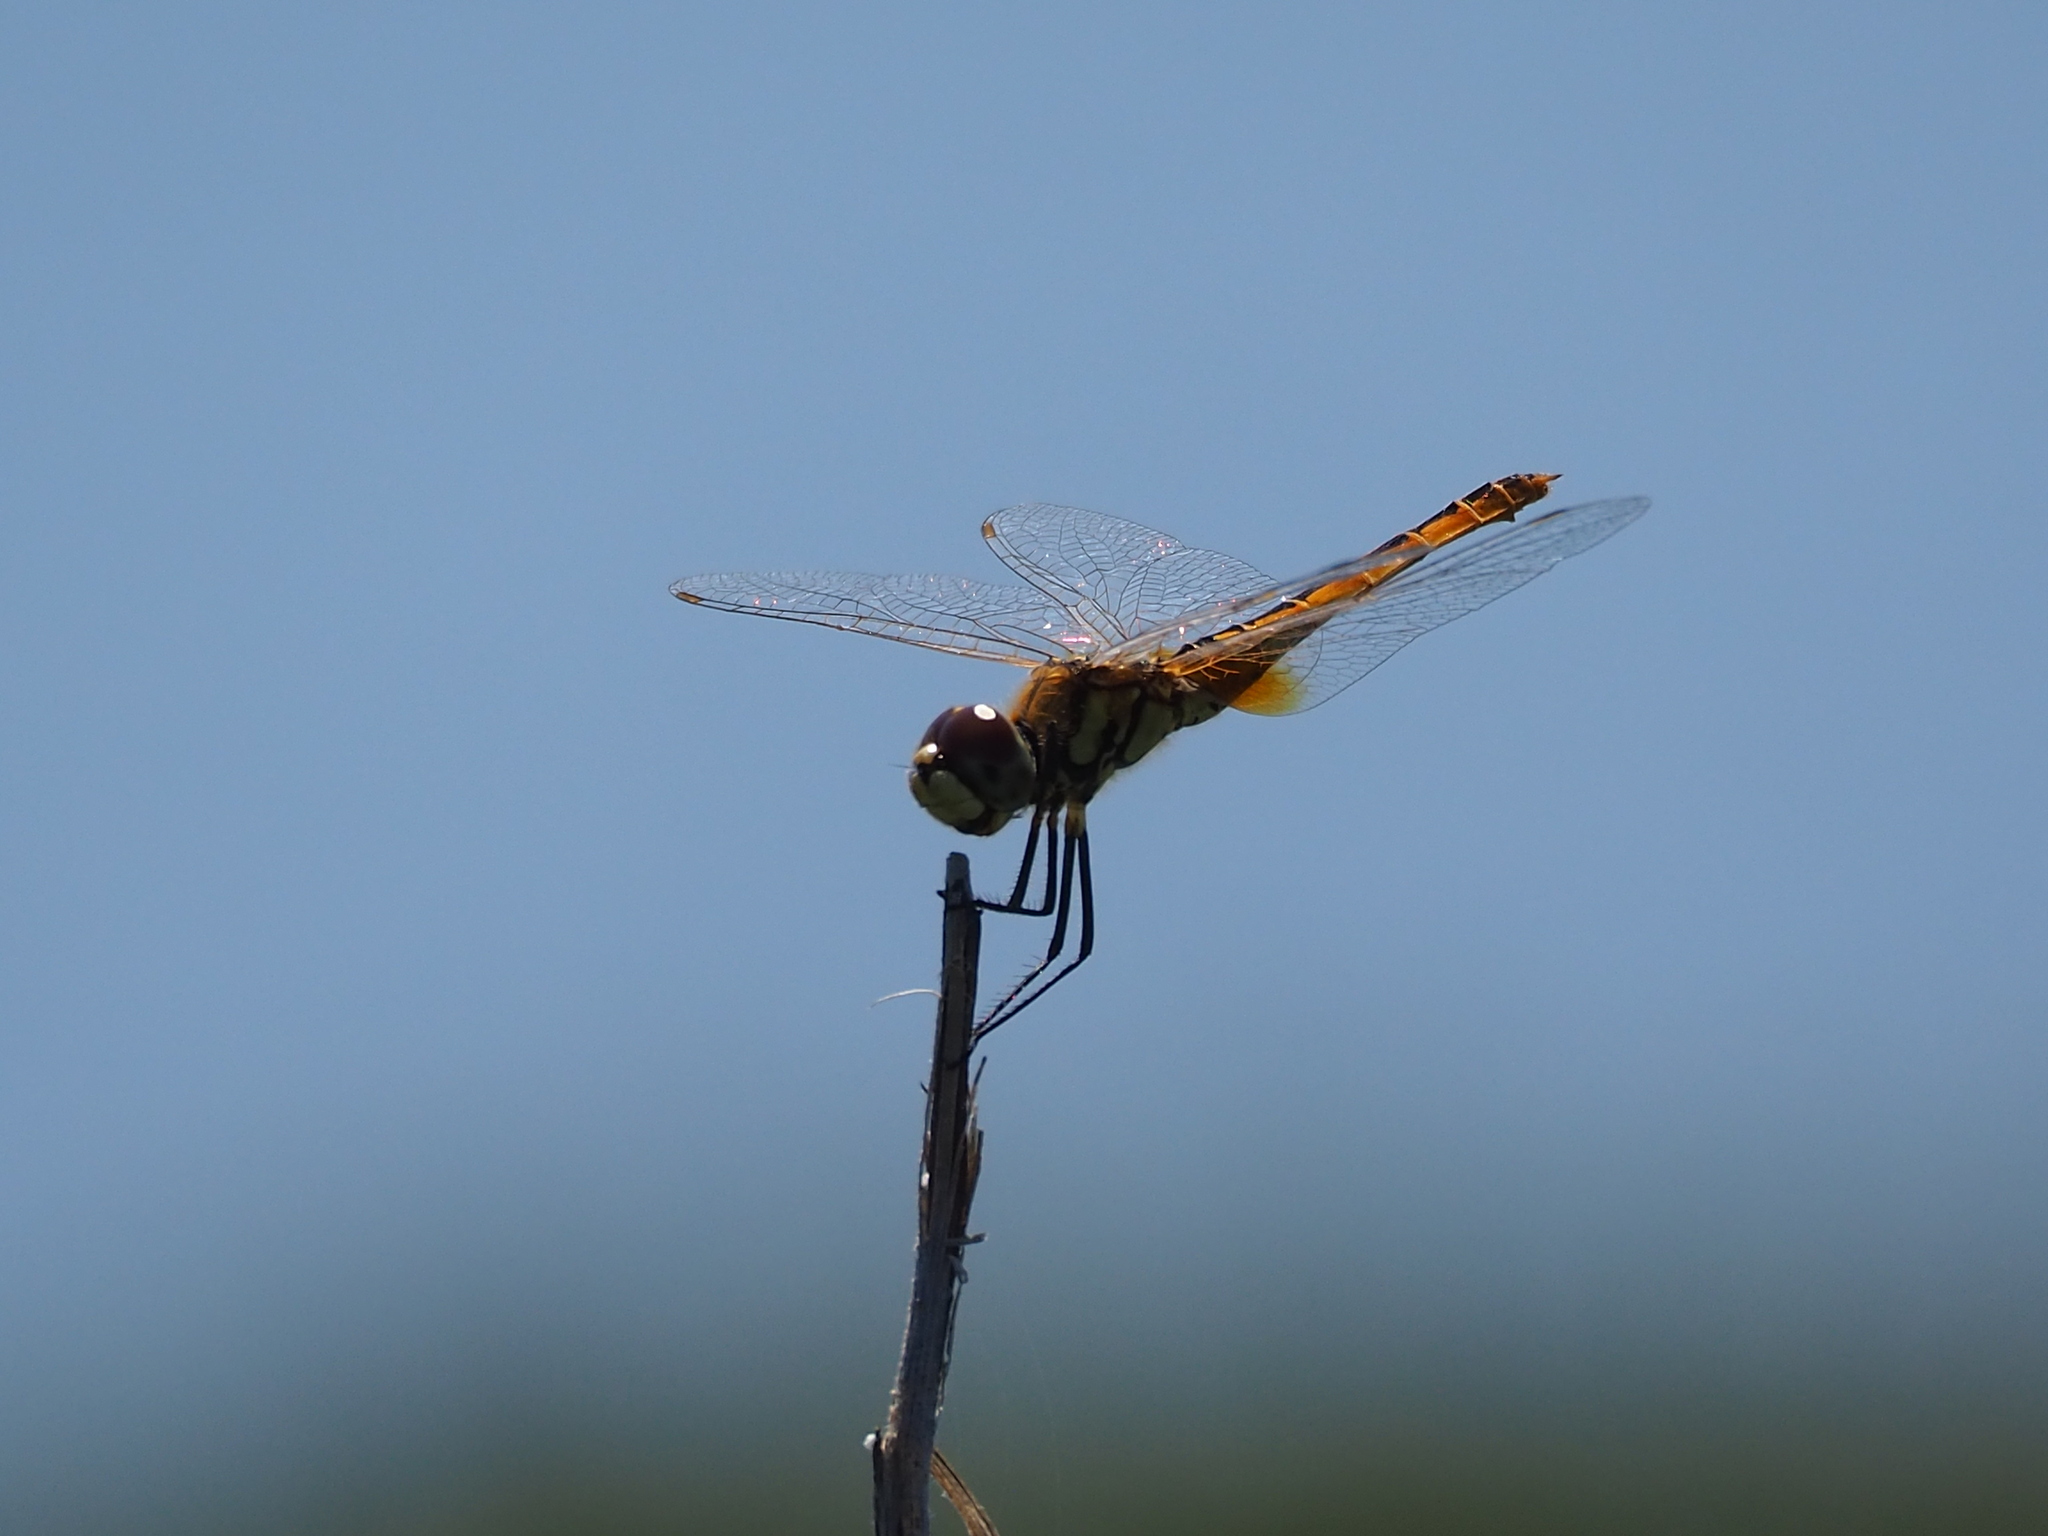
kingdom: Animalia
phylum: Arthropoda
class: Insecta
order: Odonata
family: Libellulidae
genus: Macrodiplax
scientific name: Macrodiplax cora
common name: Coastal glider
